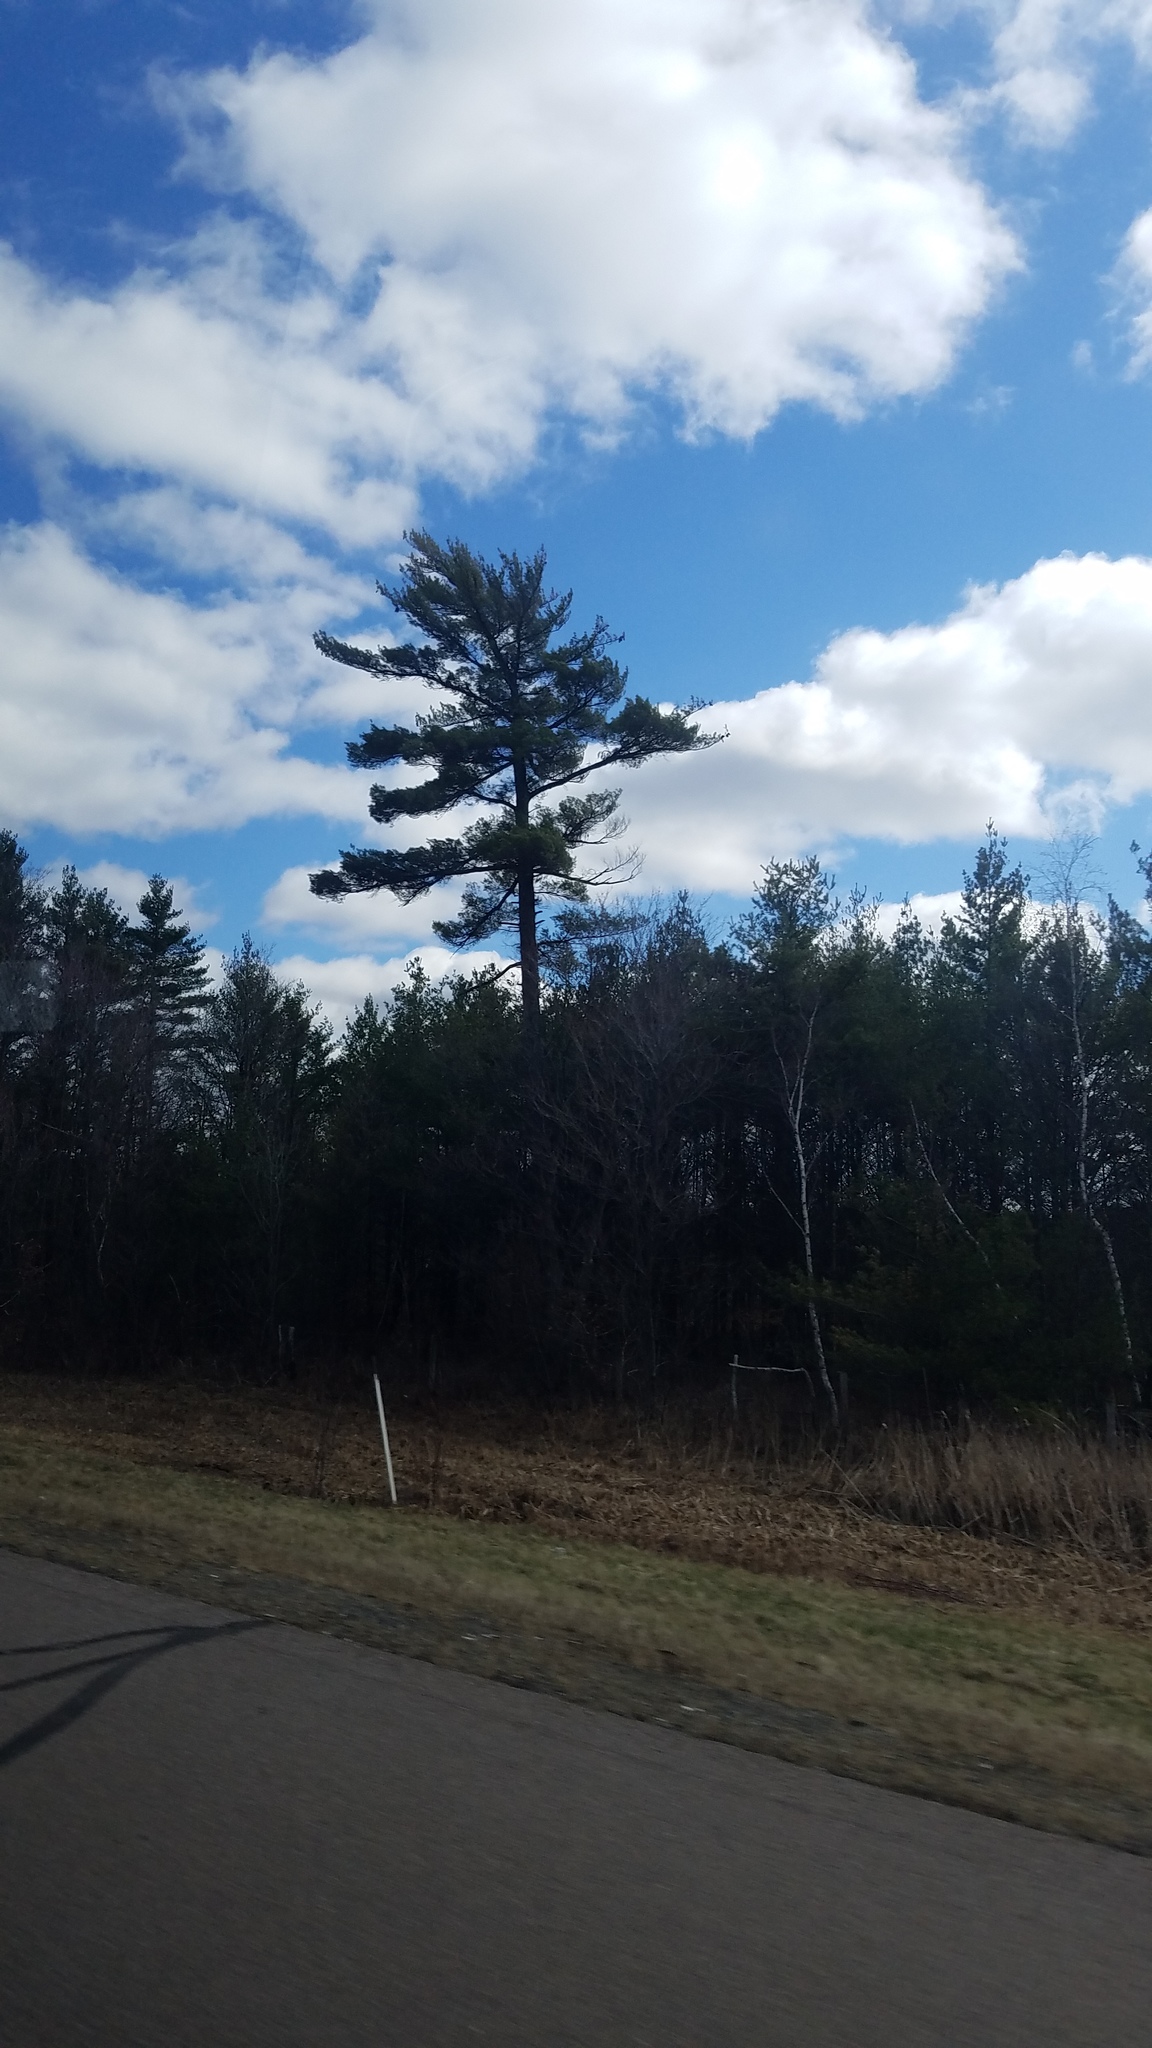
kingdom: Plantae
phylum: Tracheophyta
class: Pinopsida
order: Pinales
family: Pinaceae
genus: Pinus
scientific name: Pinus strobus
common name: Weymouth pine
